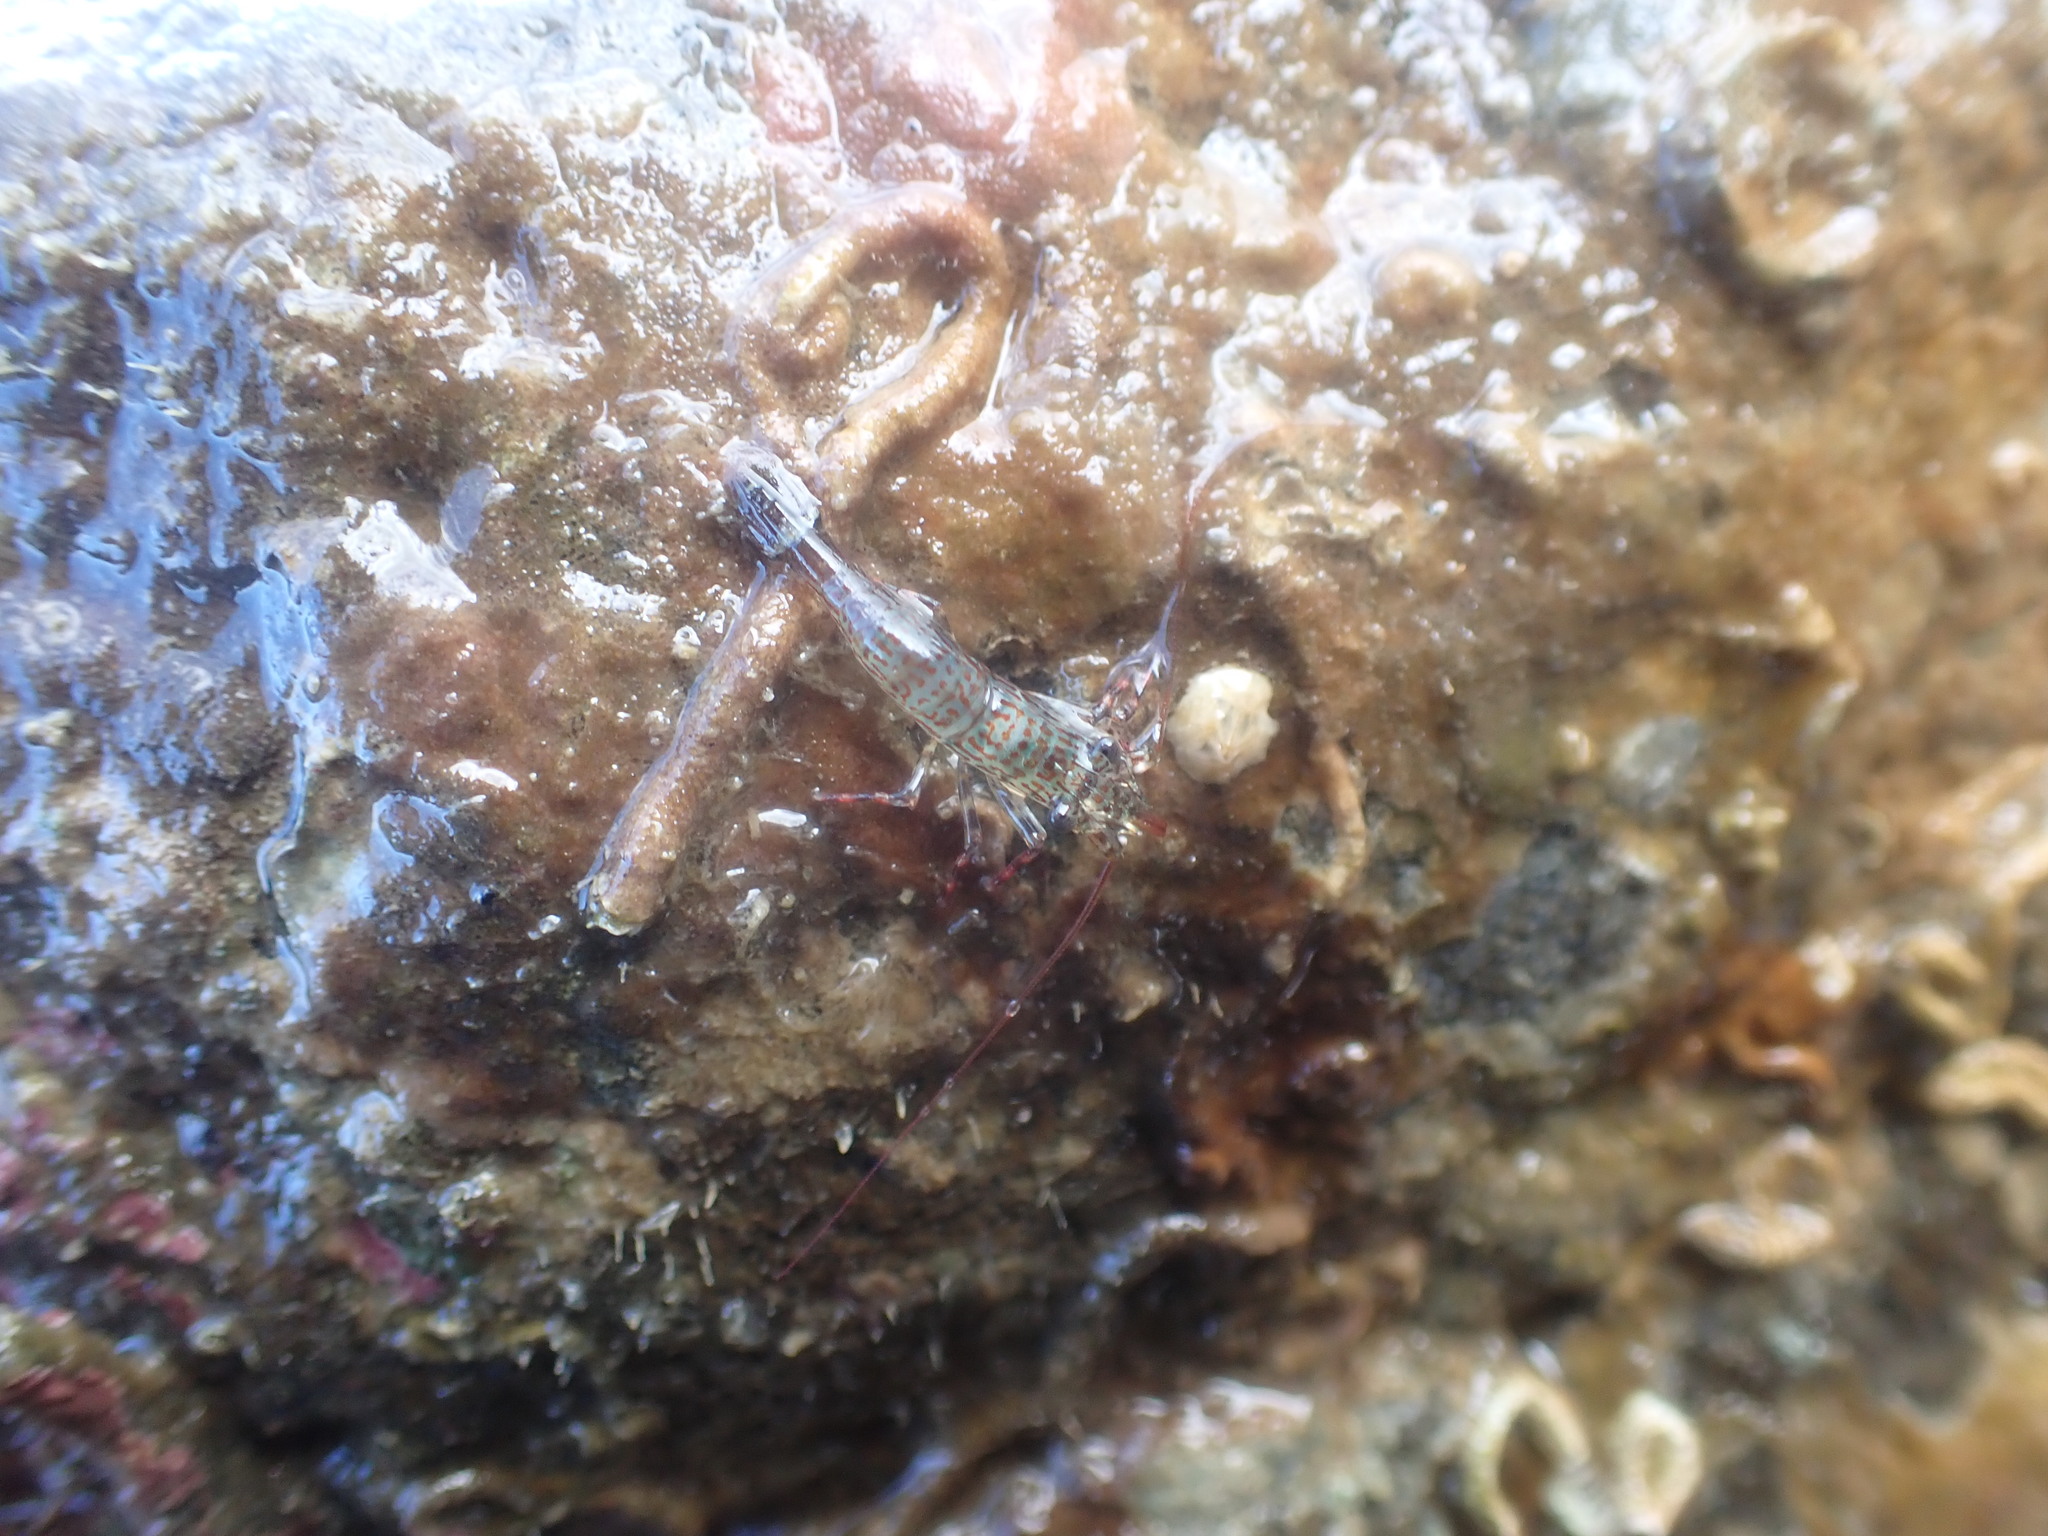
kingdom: Animalia
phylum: Arthropoda
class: Malacostraca
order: Decapoda
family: Hippolytidae
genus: Alope
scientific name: Alope spinifrons
